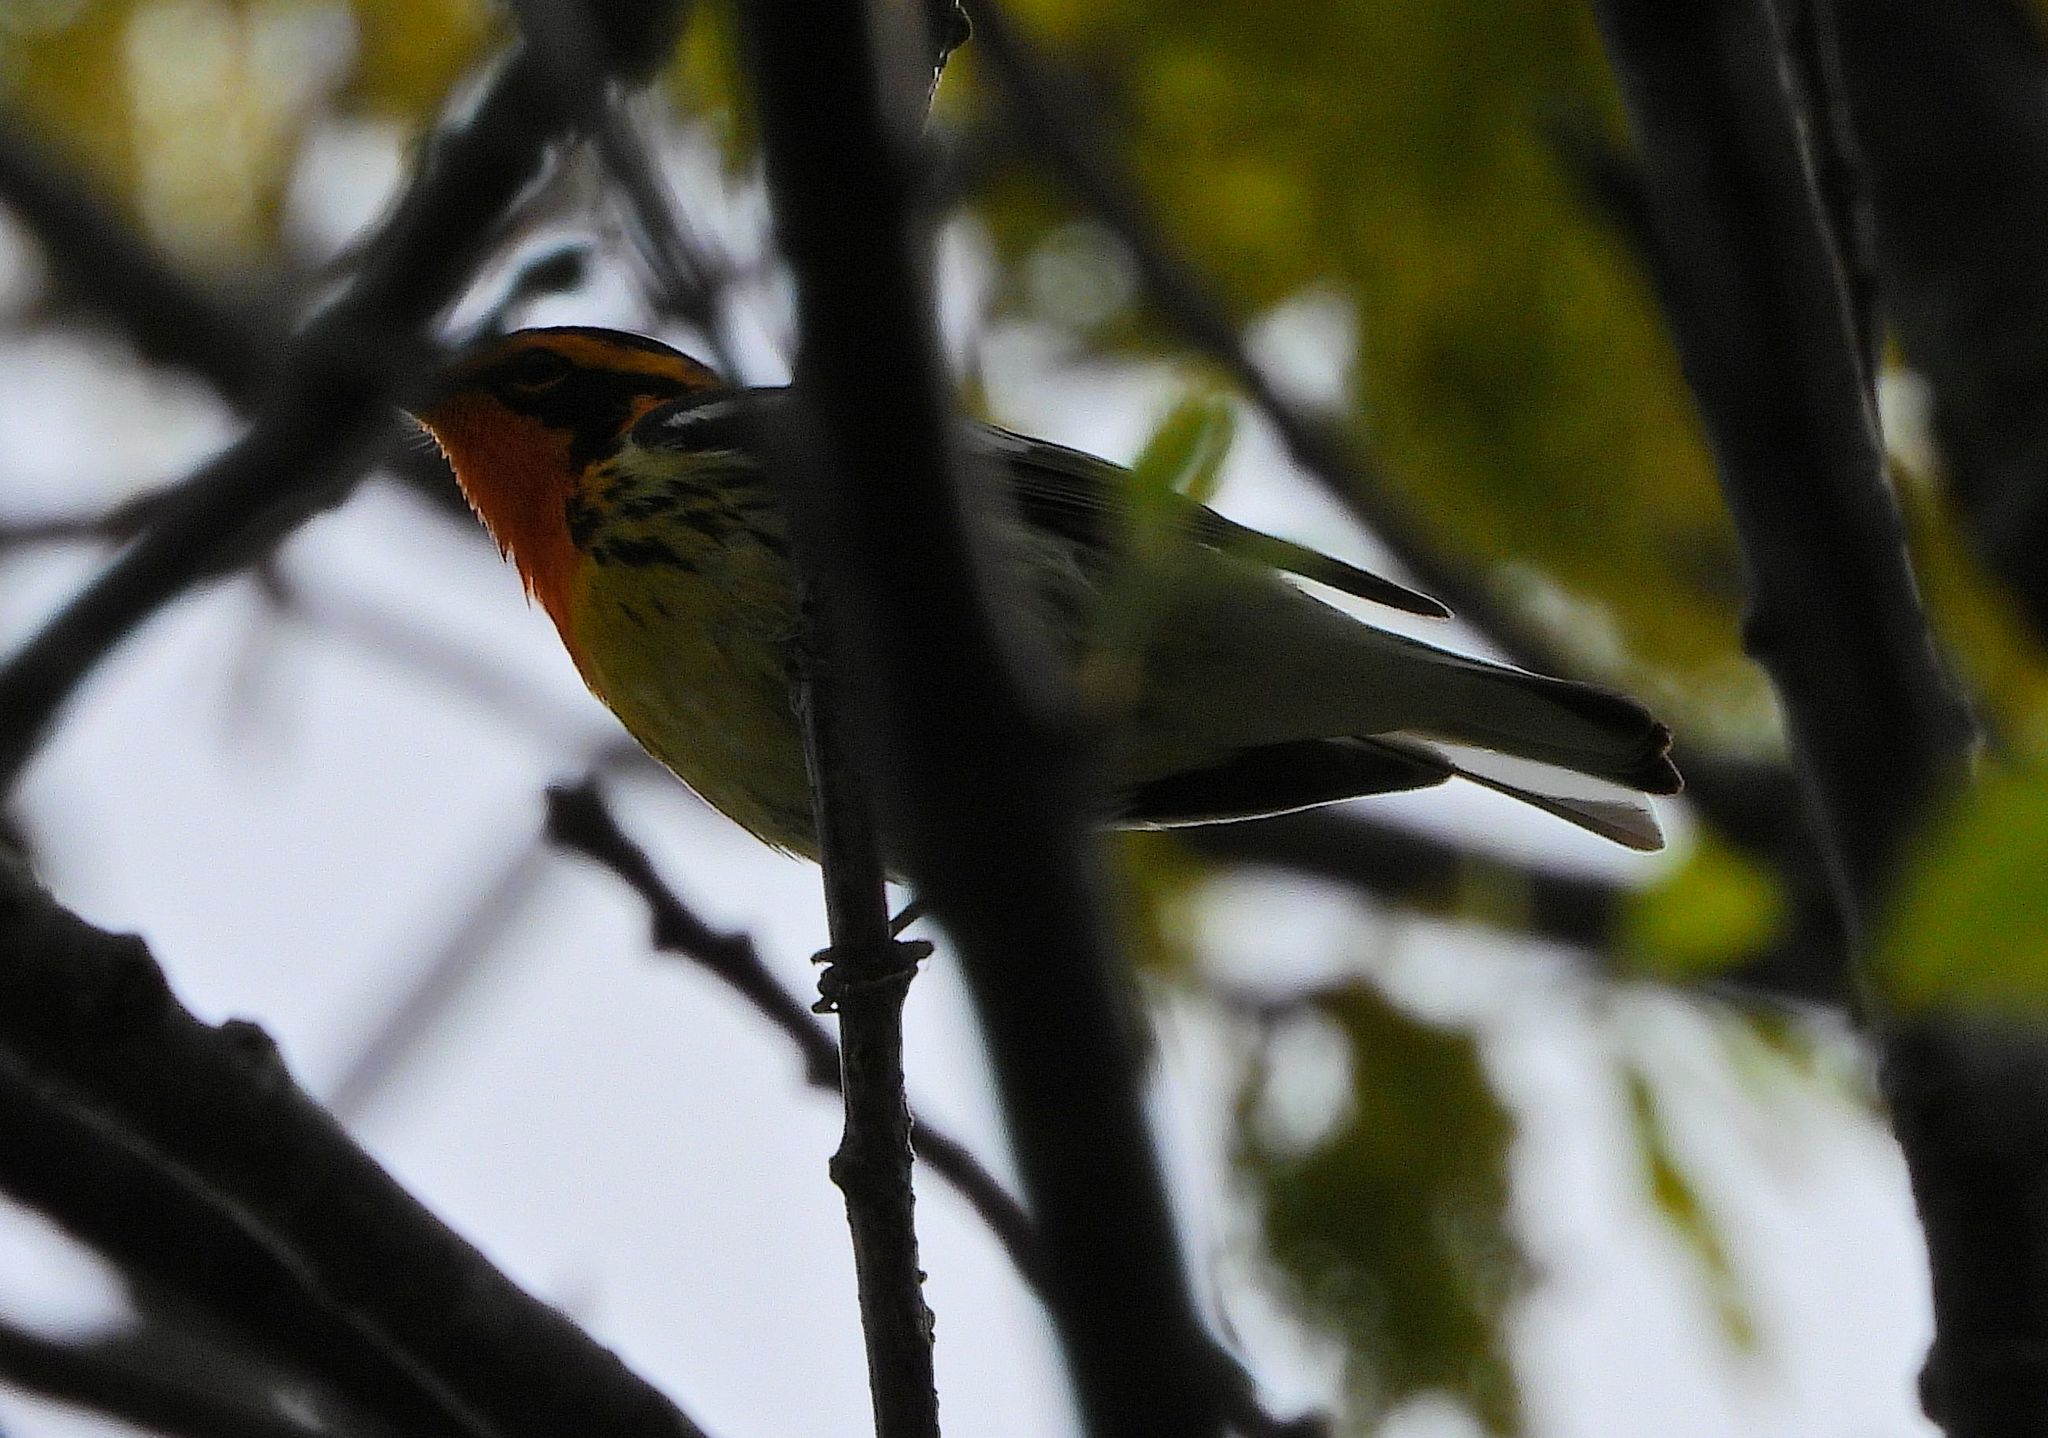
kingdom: Animalia
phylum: Chordata
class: Aves
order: Passeriformes
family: Parulidae
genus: Setophaga
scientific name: Setophaga fusca
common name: Blackburnian warbler
